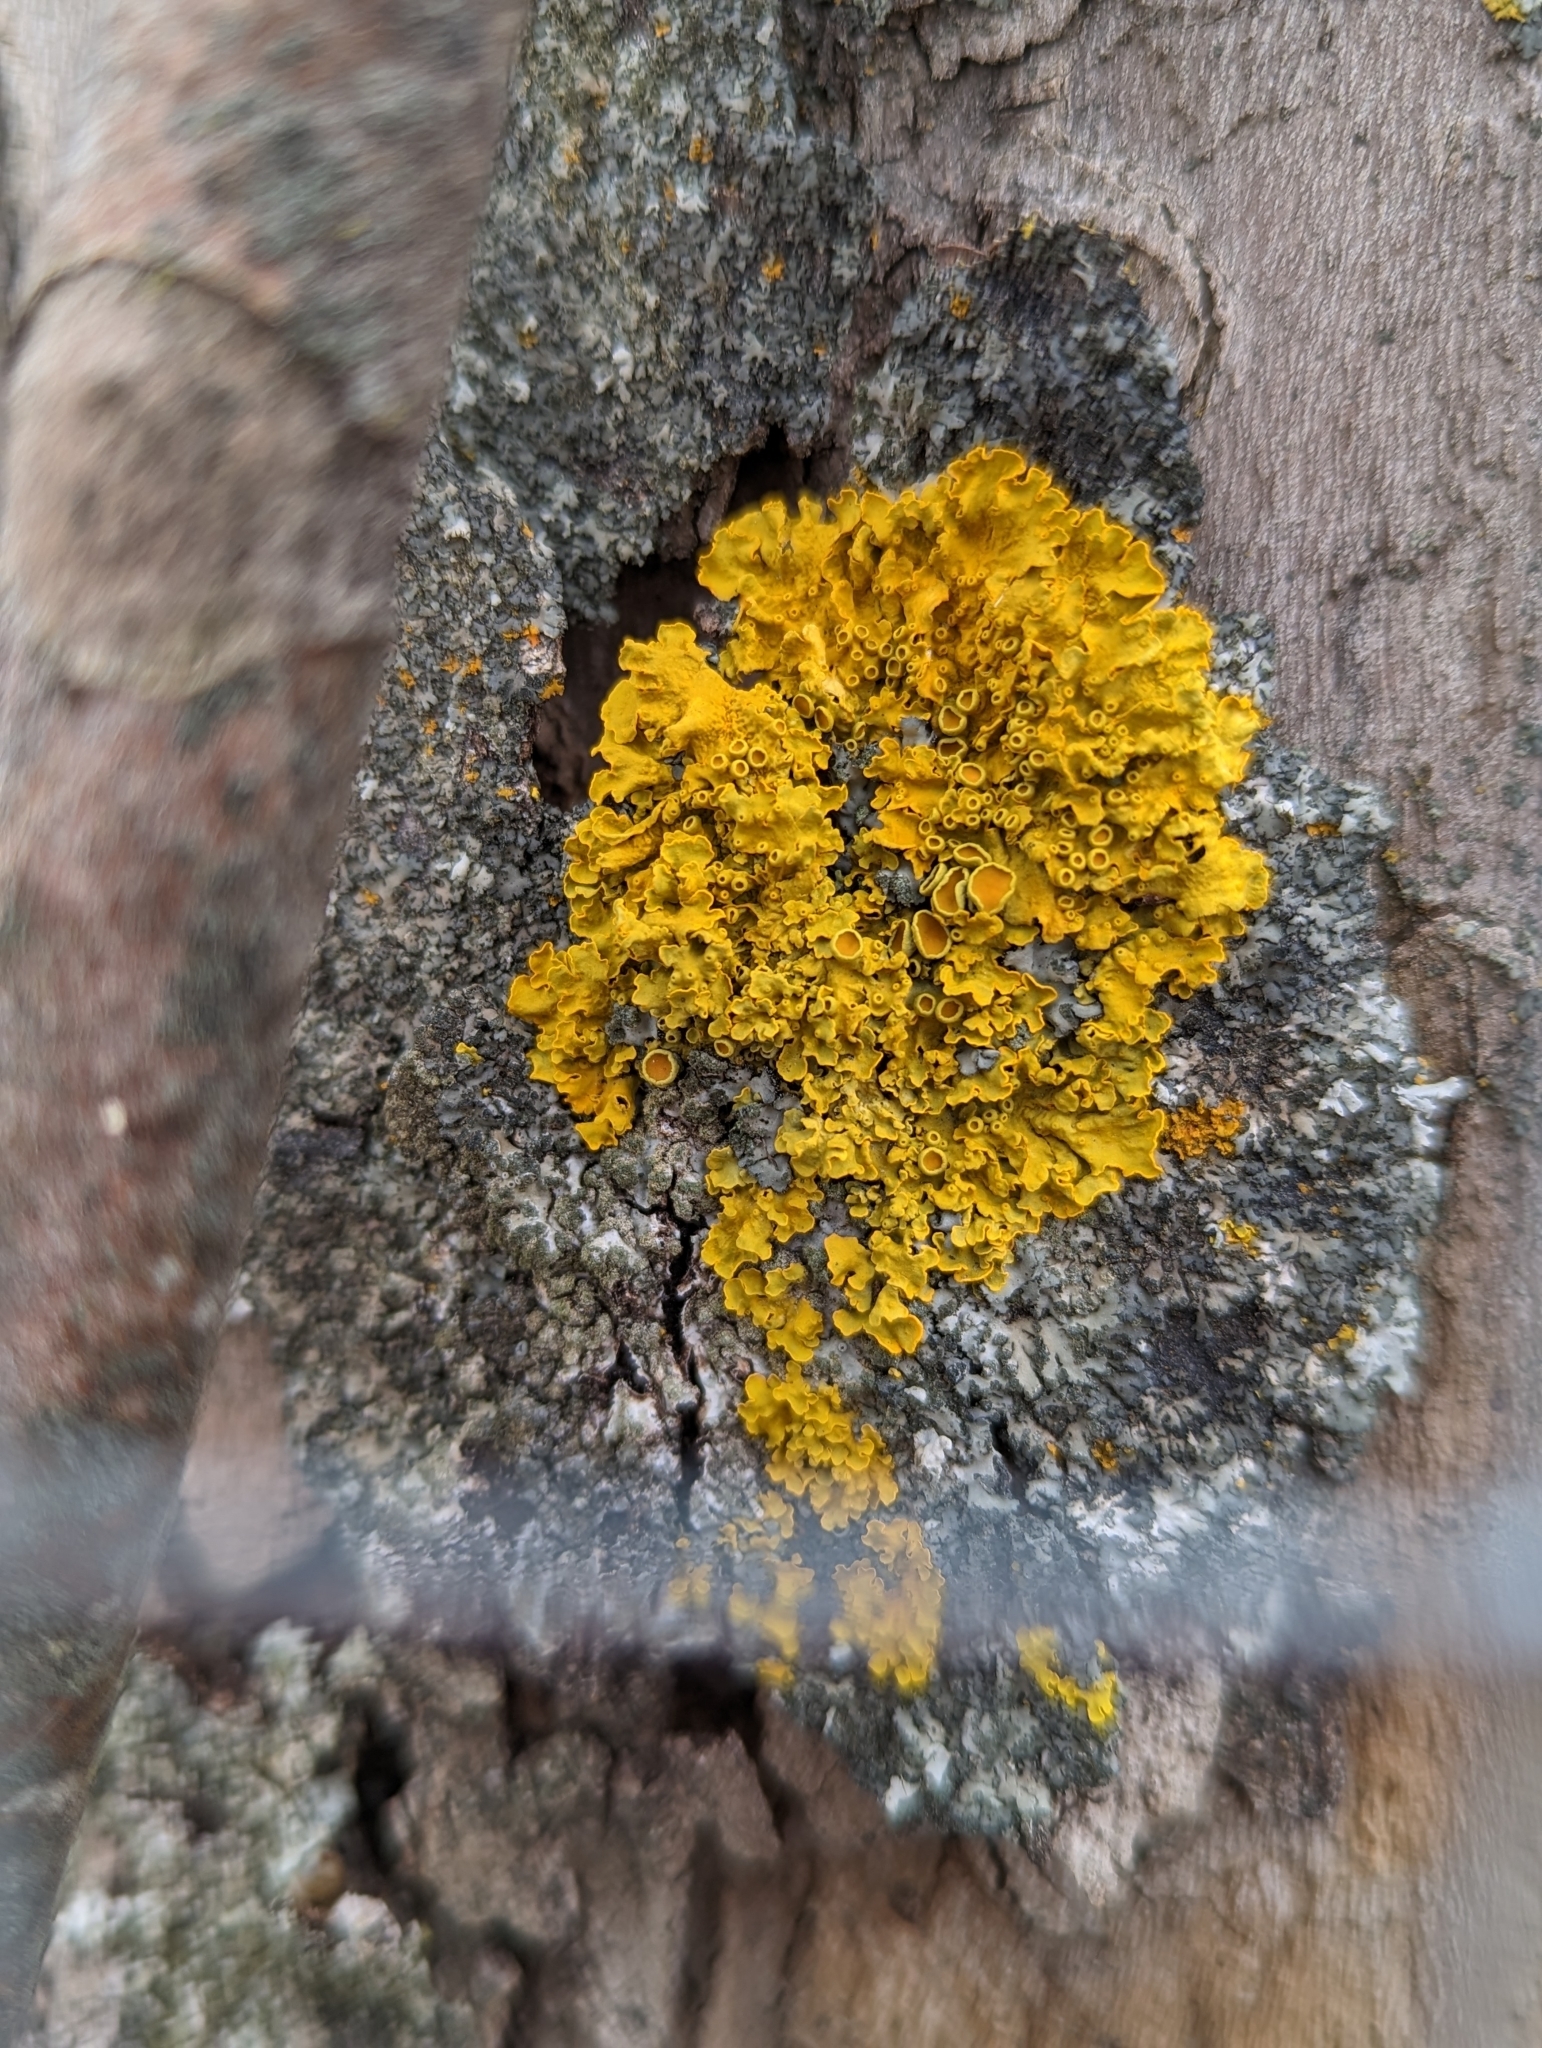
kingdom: Fungi
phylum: Ascomycota
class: Lecanoromycetes
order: Teloschistales
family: Teloschistaceae
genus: Xanthoria
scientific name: Xanthoria parietina
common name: Common orange lichen
